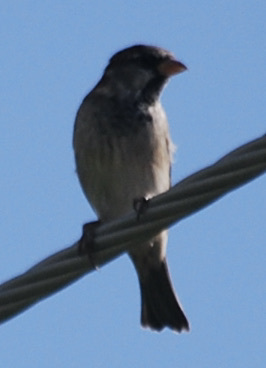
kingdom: Animalia
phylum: Chordata
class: Aves
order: Passeriformes
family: Passeridae
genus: Passer
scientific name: Passer domesticus
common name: House sparrow
